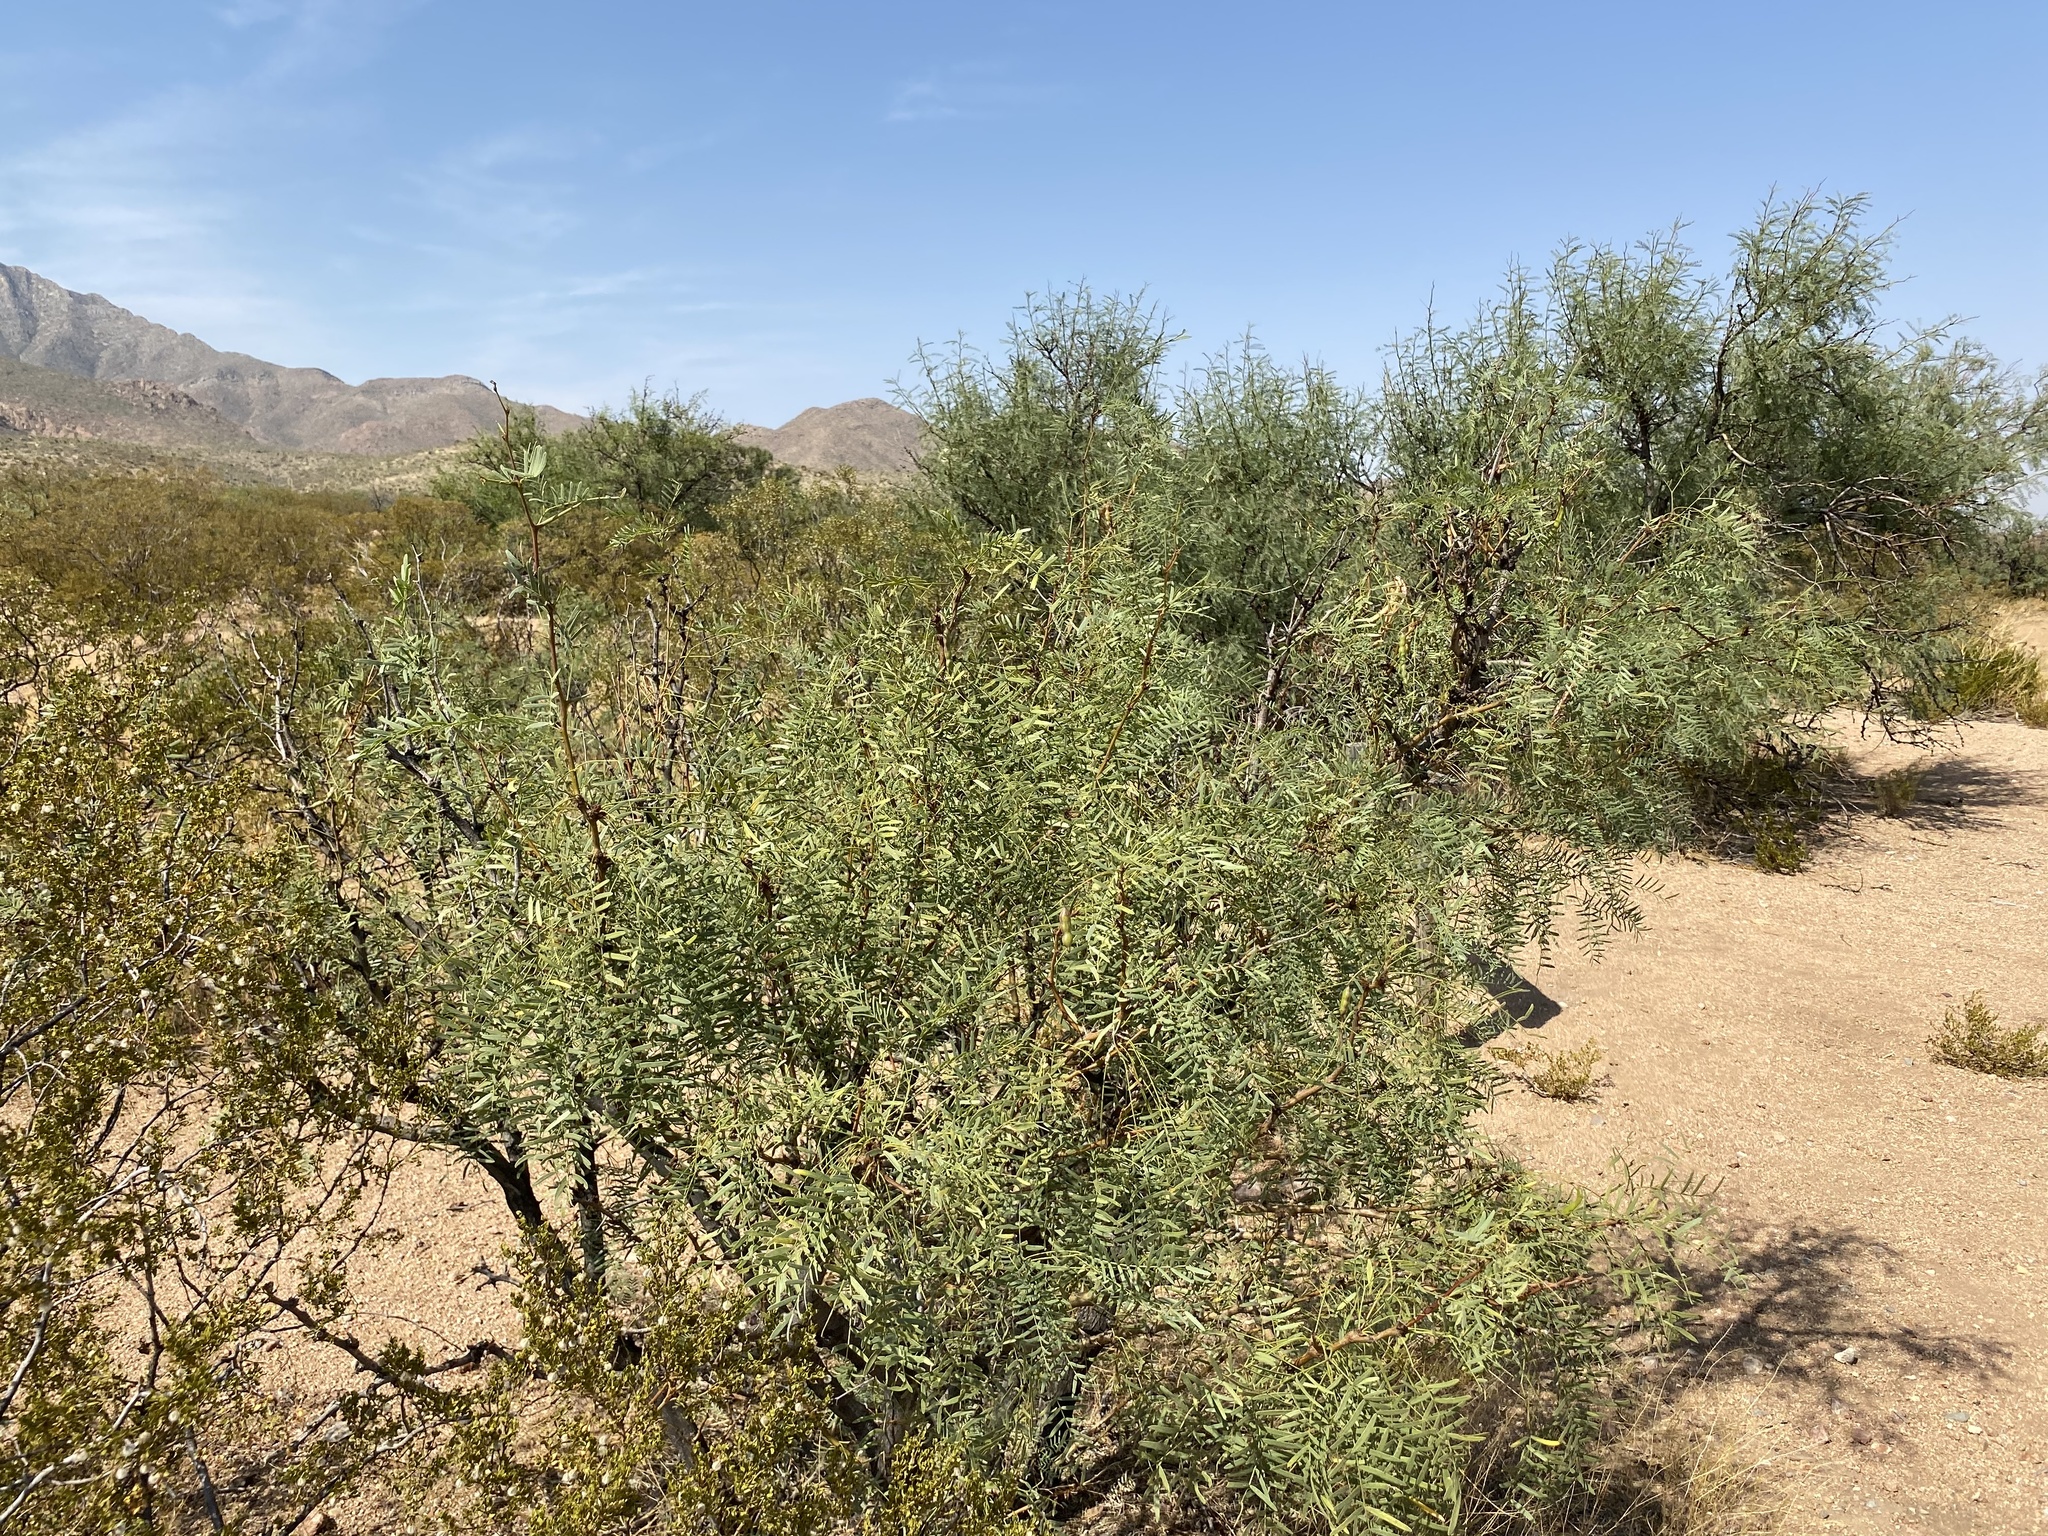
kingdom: Plantae
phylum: Tracheophyta
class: Magnoliopsida
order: Fabales
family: Fabaceae
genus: Prosopis
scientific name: Prosopis glandulosa
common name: Honey mesquite
